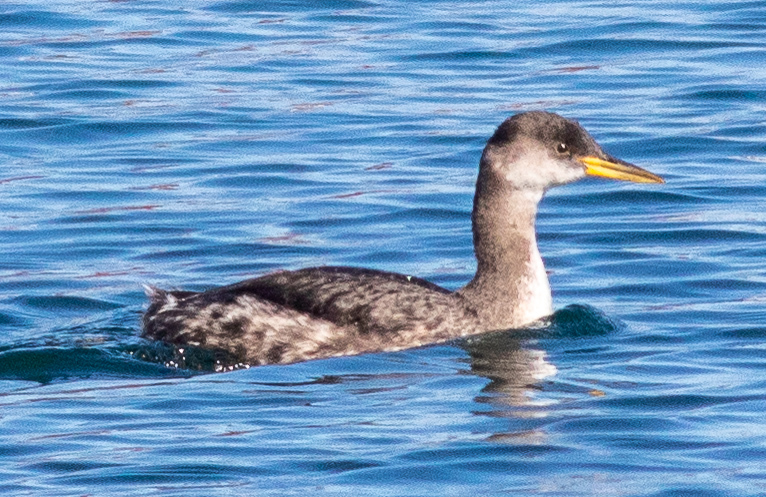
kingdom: Animalia
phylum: Chordata
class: Aves
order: Podicipediformes
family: Podicipedidae
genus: Podiceps
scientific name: Podiceps grisegena
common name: Red-necked grebe
